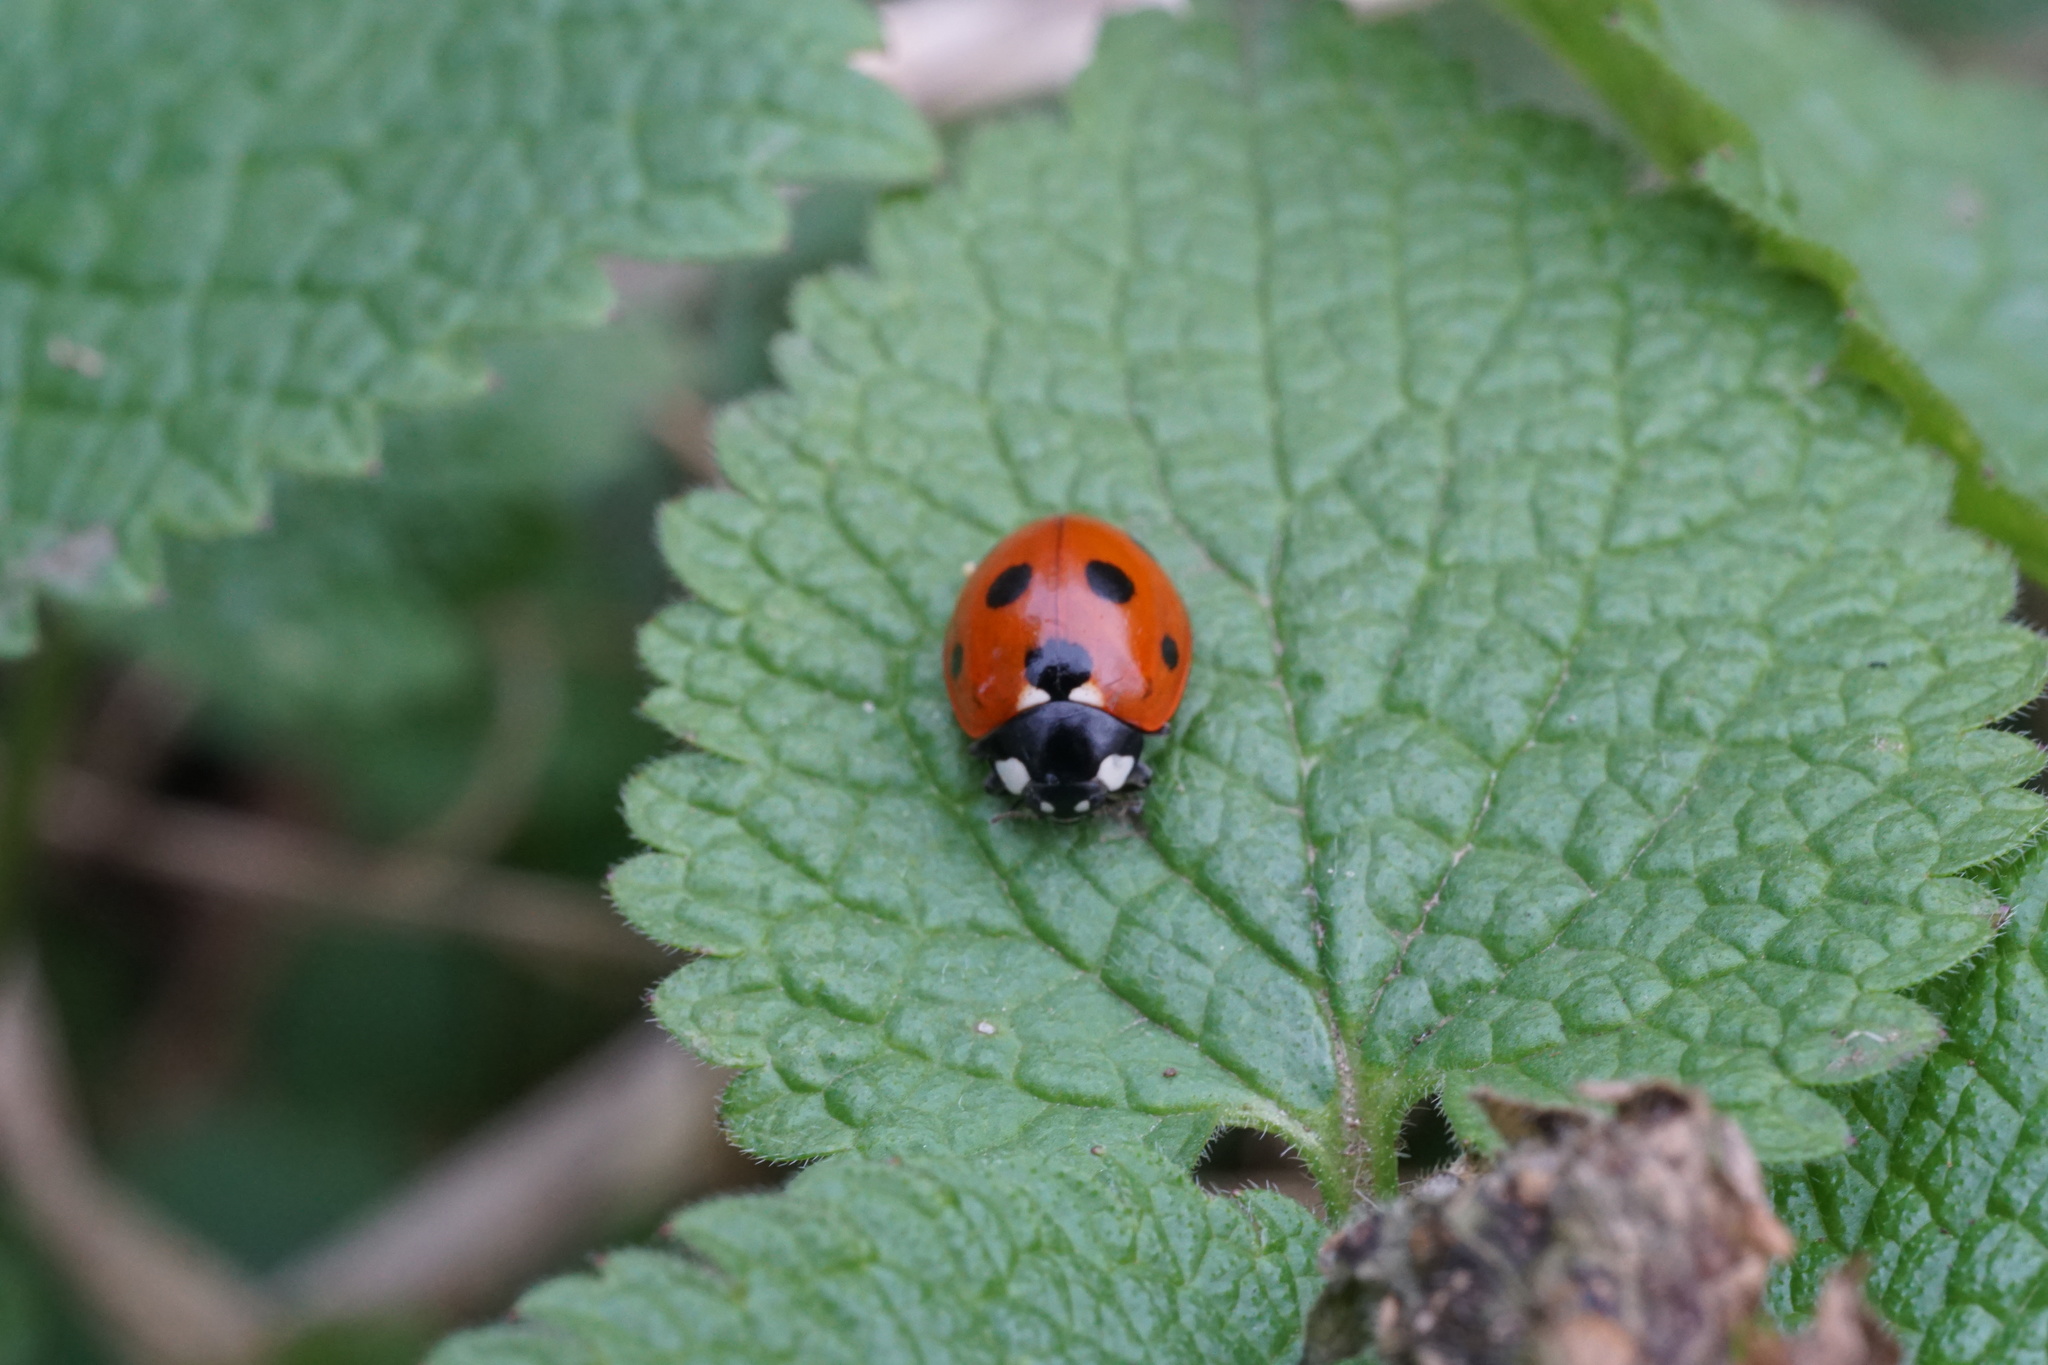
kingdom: Animalia
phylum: Arthropoda
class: Insecta
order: Coleoptera
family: Coccinellidae
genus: Coccinella
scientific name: Coccinella septempunctata
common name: Sevenspotted lady beetle
